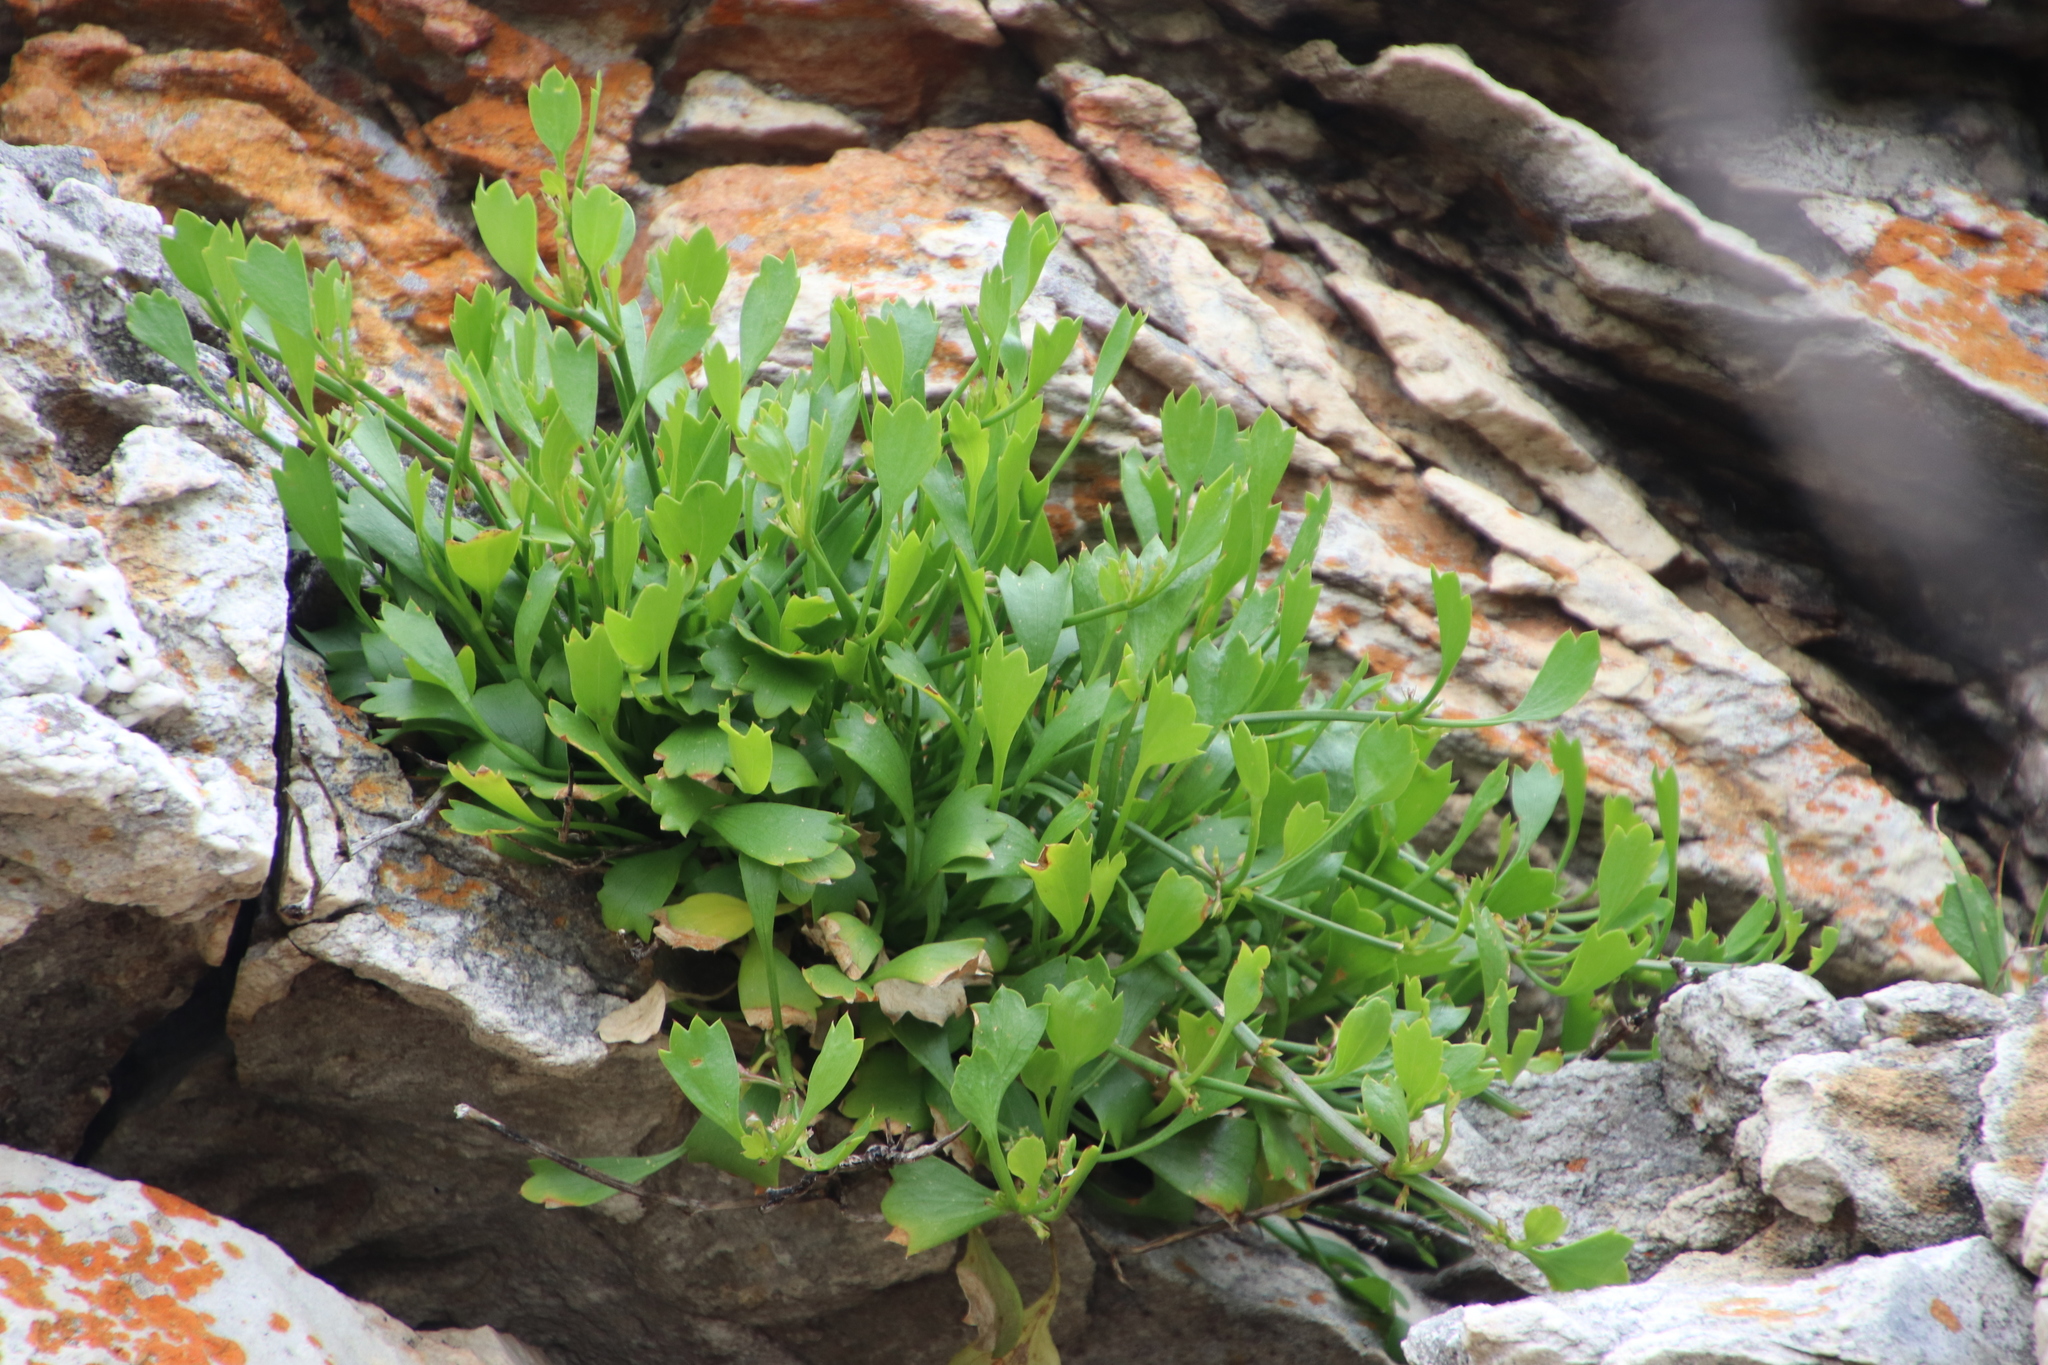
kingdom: Plantae
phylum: Tracheophyta
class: Magnoliopsida
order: Apiales
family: Apiaceae
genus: Centella
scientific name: Centella triloba
